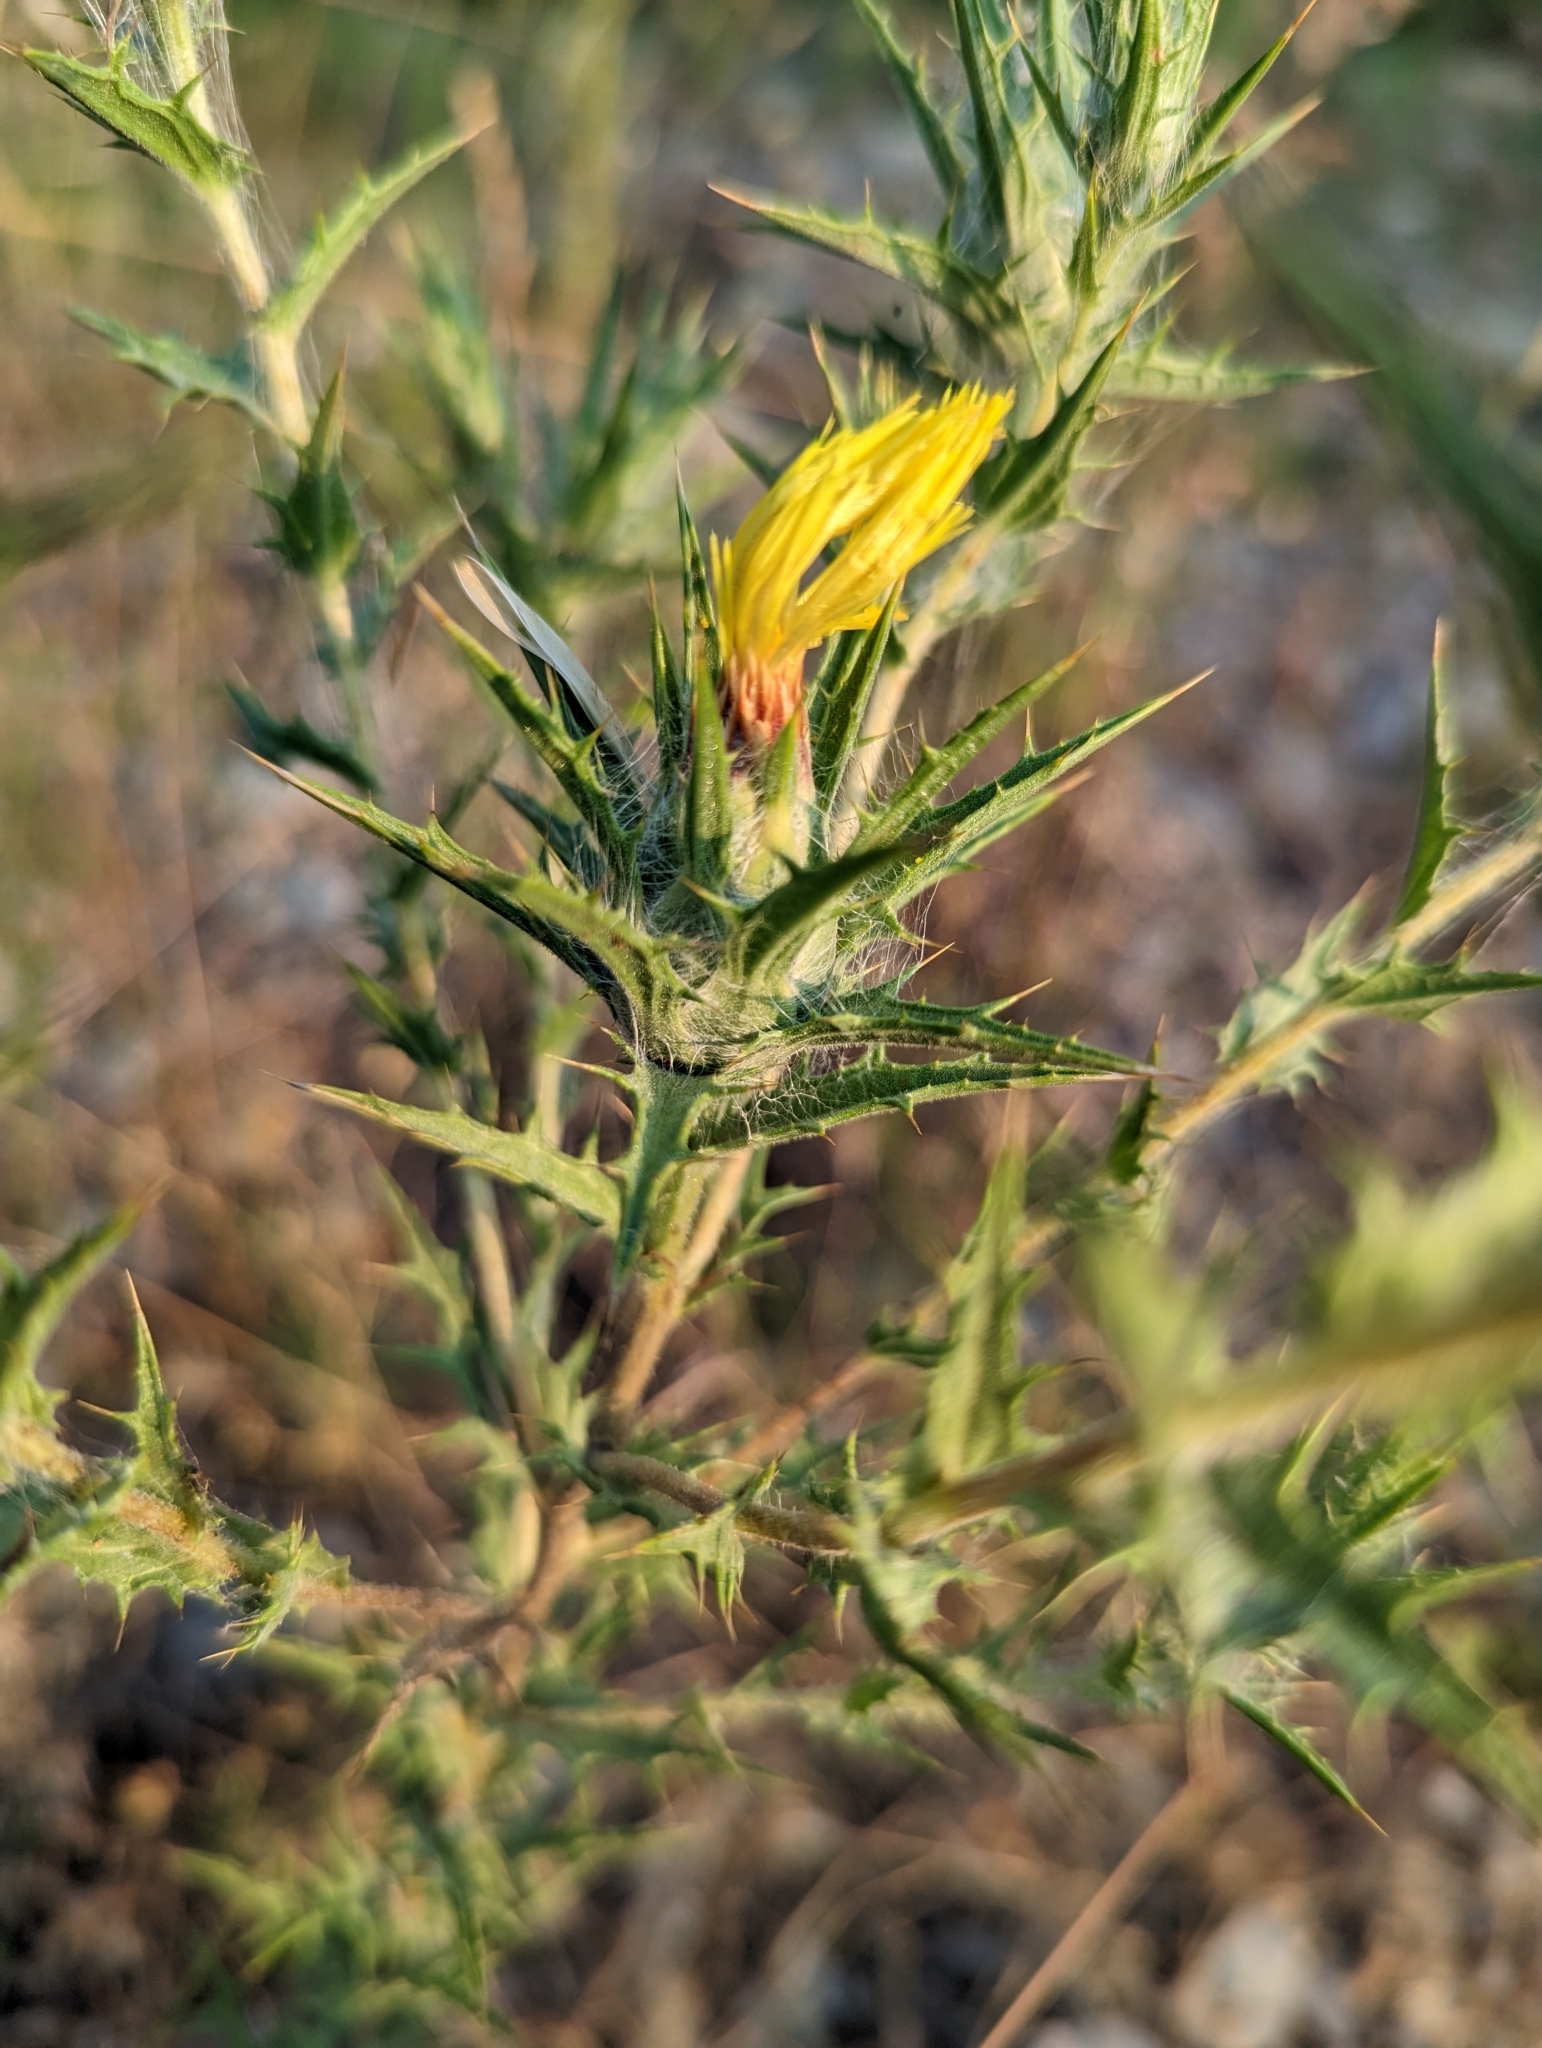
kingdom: Plantae
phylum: Tracheophyta
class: Magnoliopsida
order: Asterales
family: Asteraceae
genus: Carthamus
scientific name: Carthamus lanatus
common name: Downy safflower
